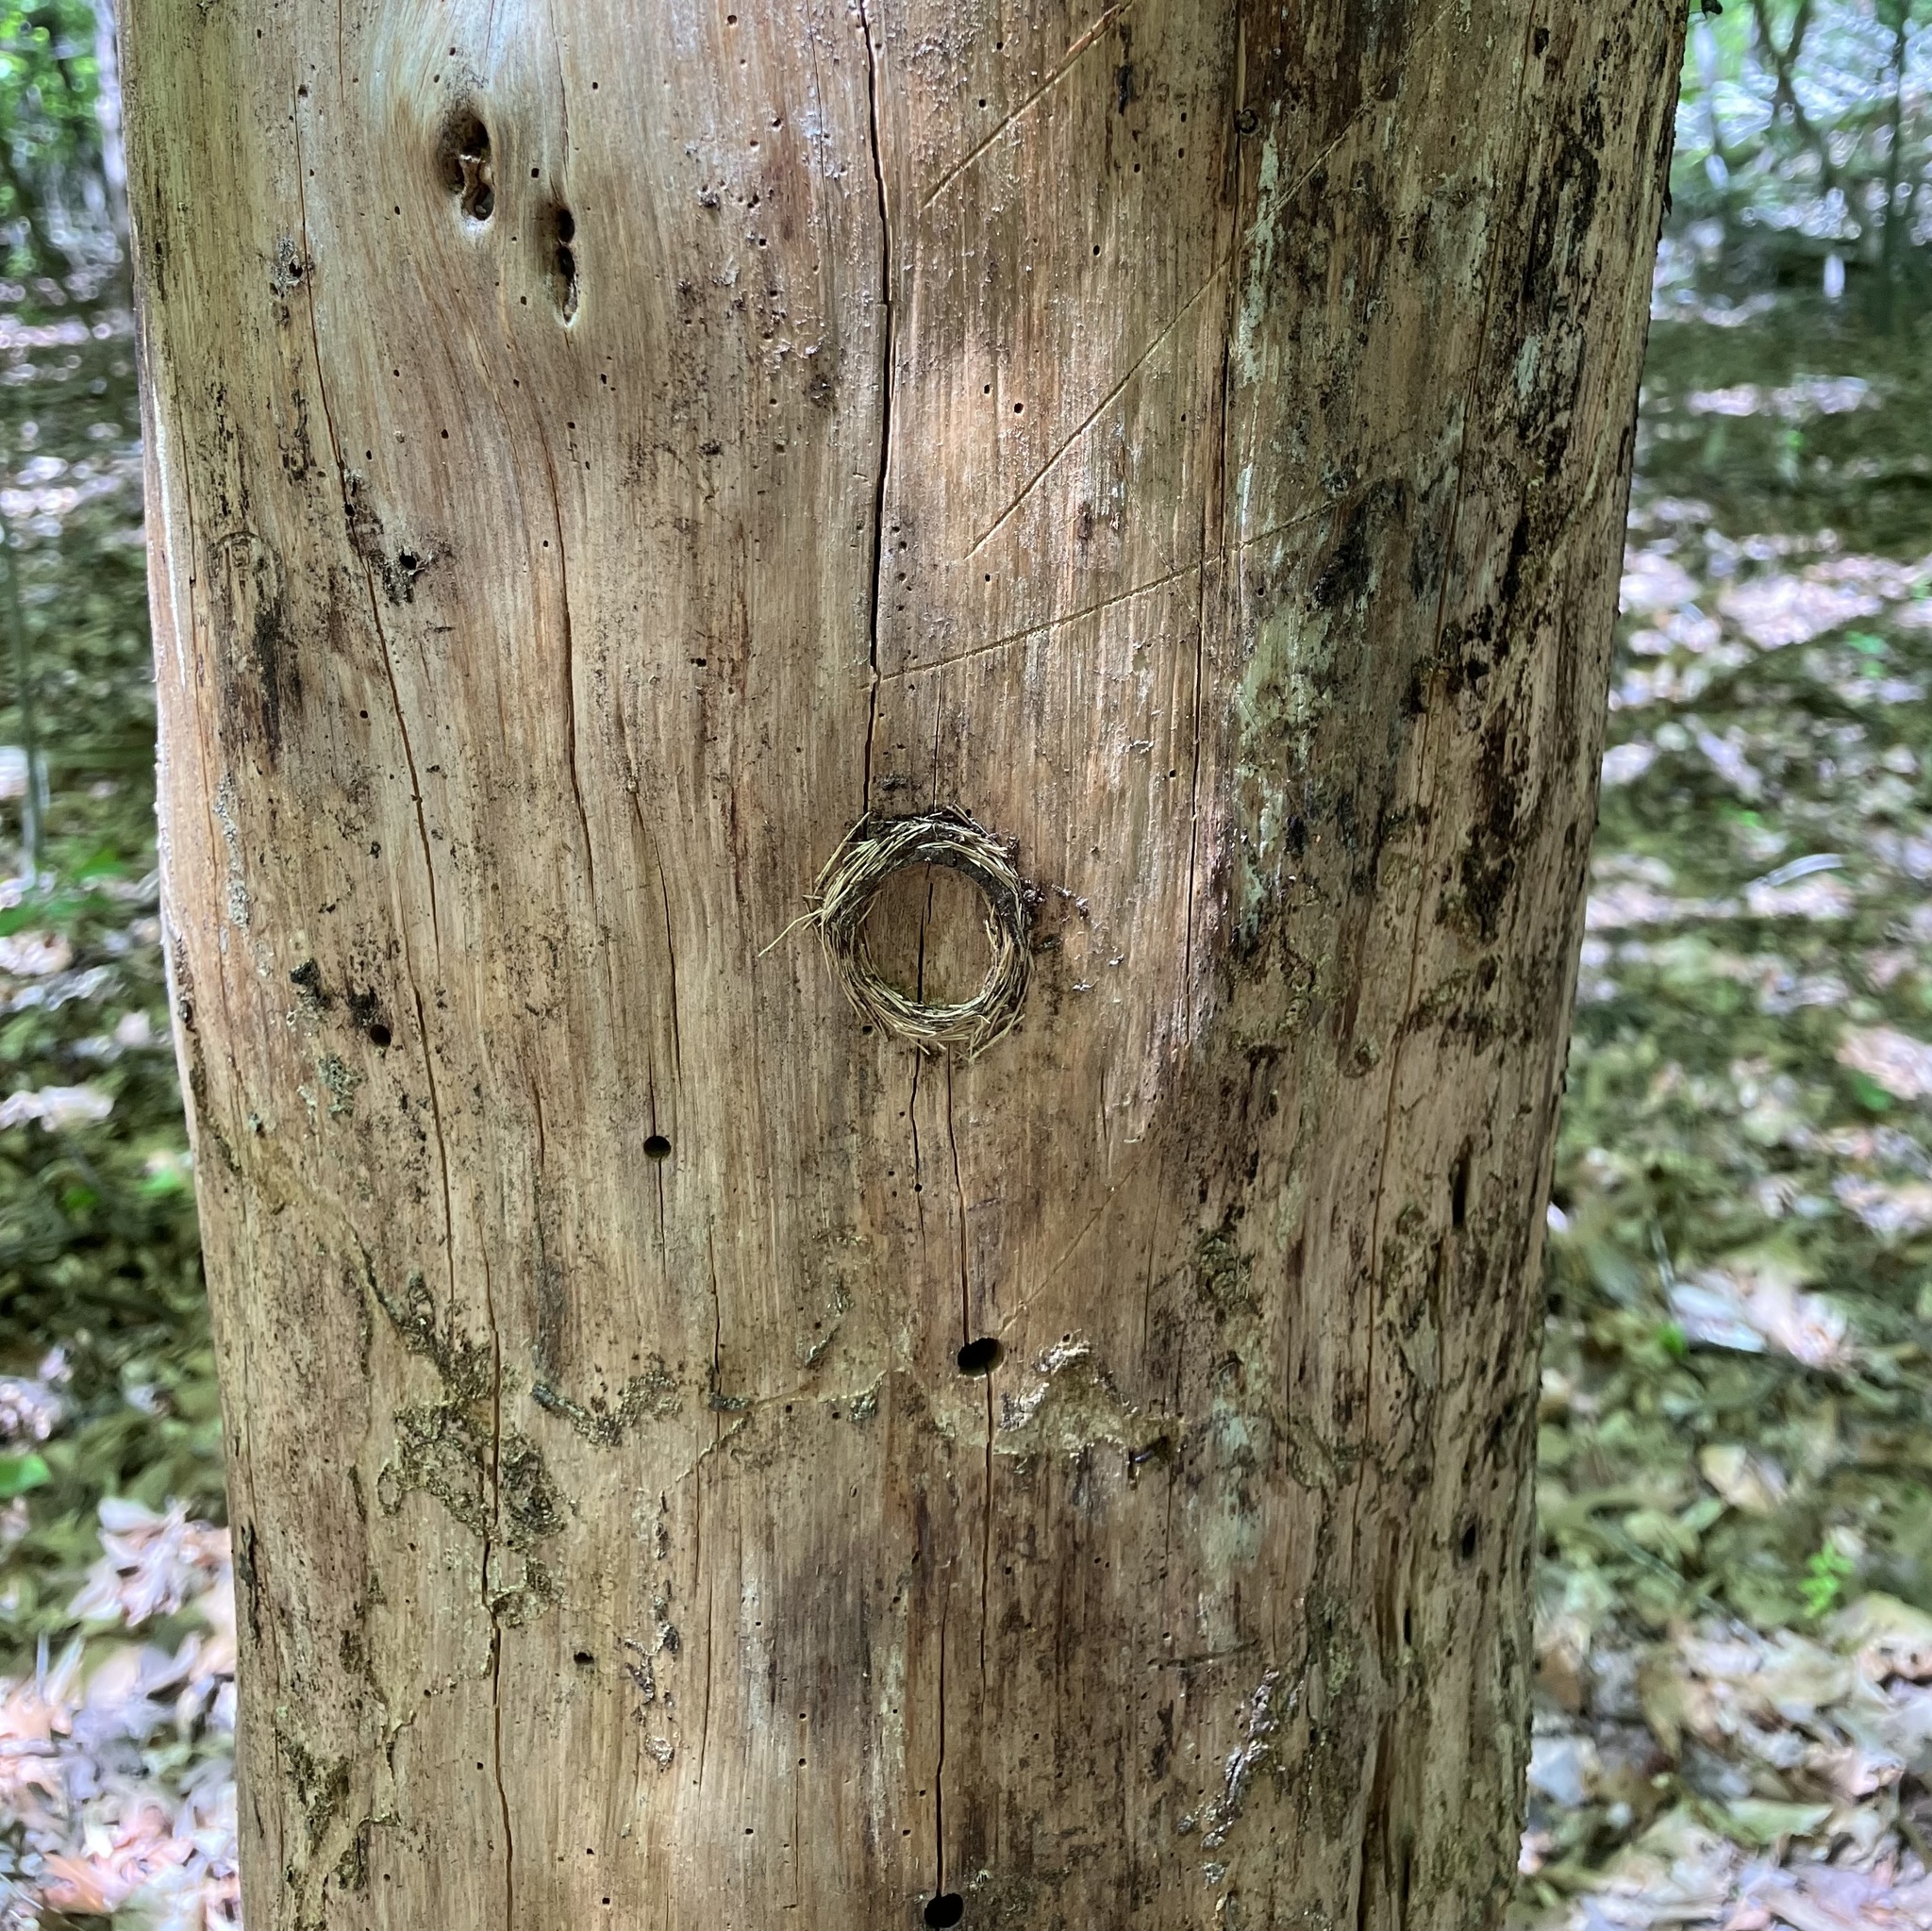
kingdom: Animalia
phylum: Arthropoda
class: Insecta
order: Coleoptera
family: Cerambycidae
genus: Rhagium
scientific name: Rhagium inquisitor
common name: Ribbed pine borer
